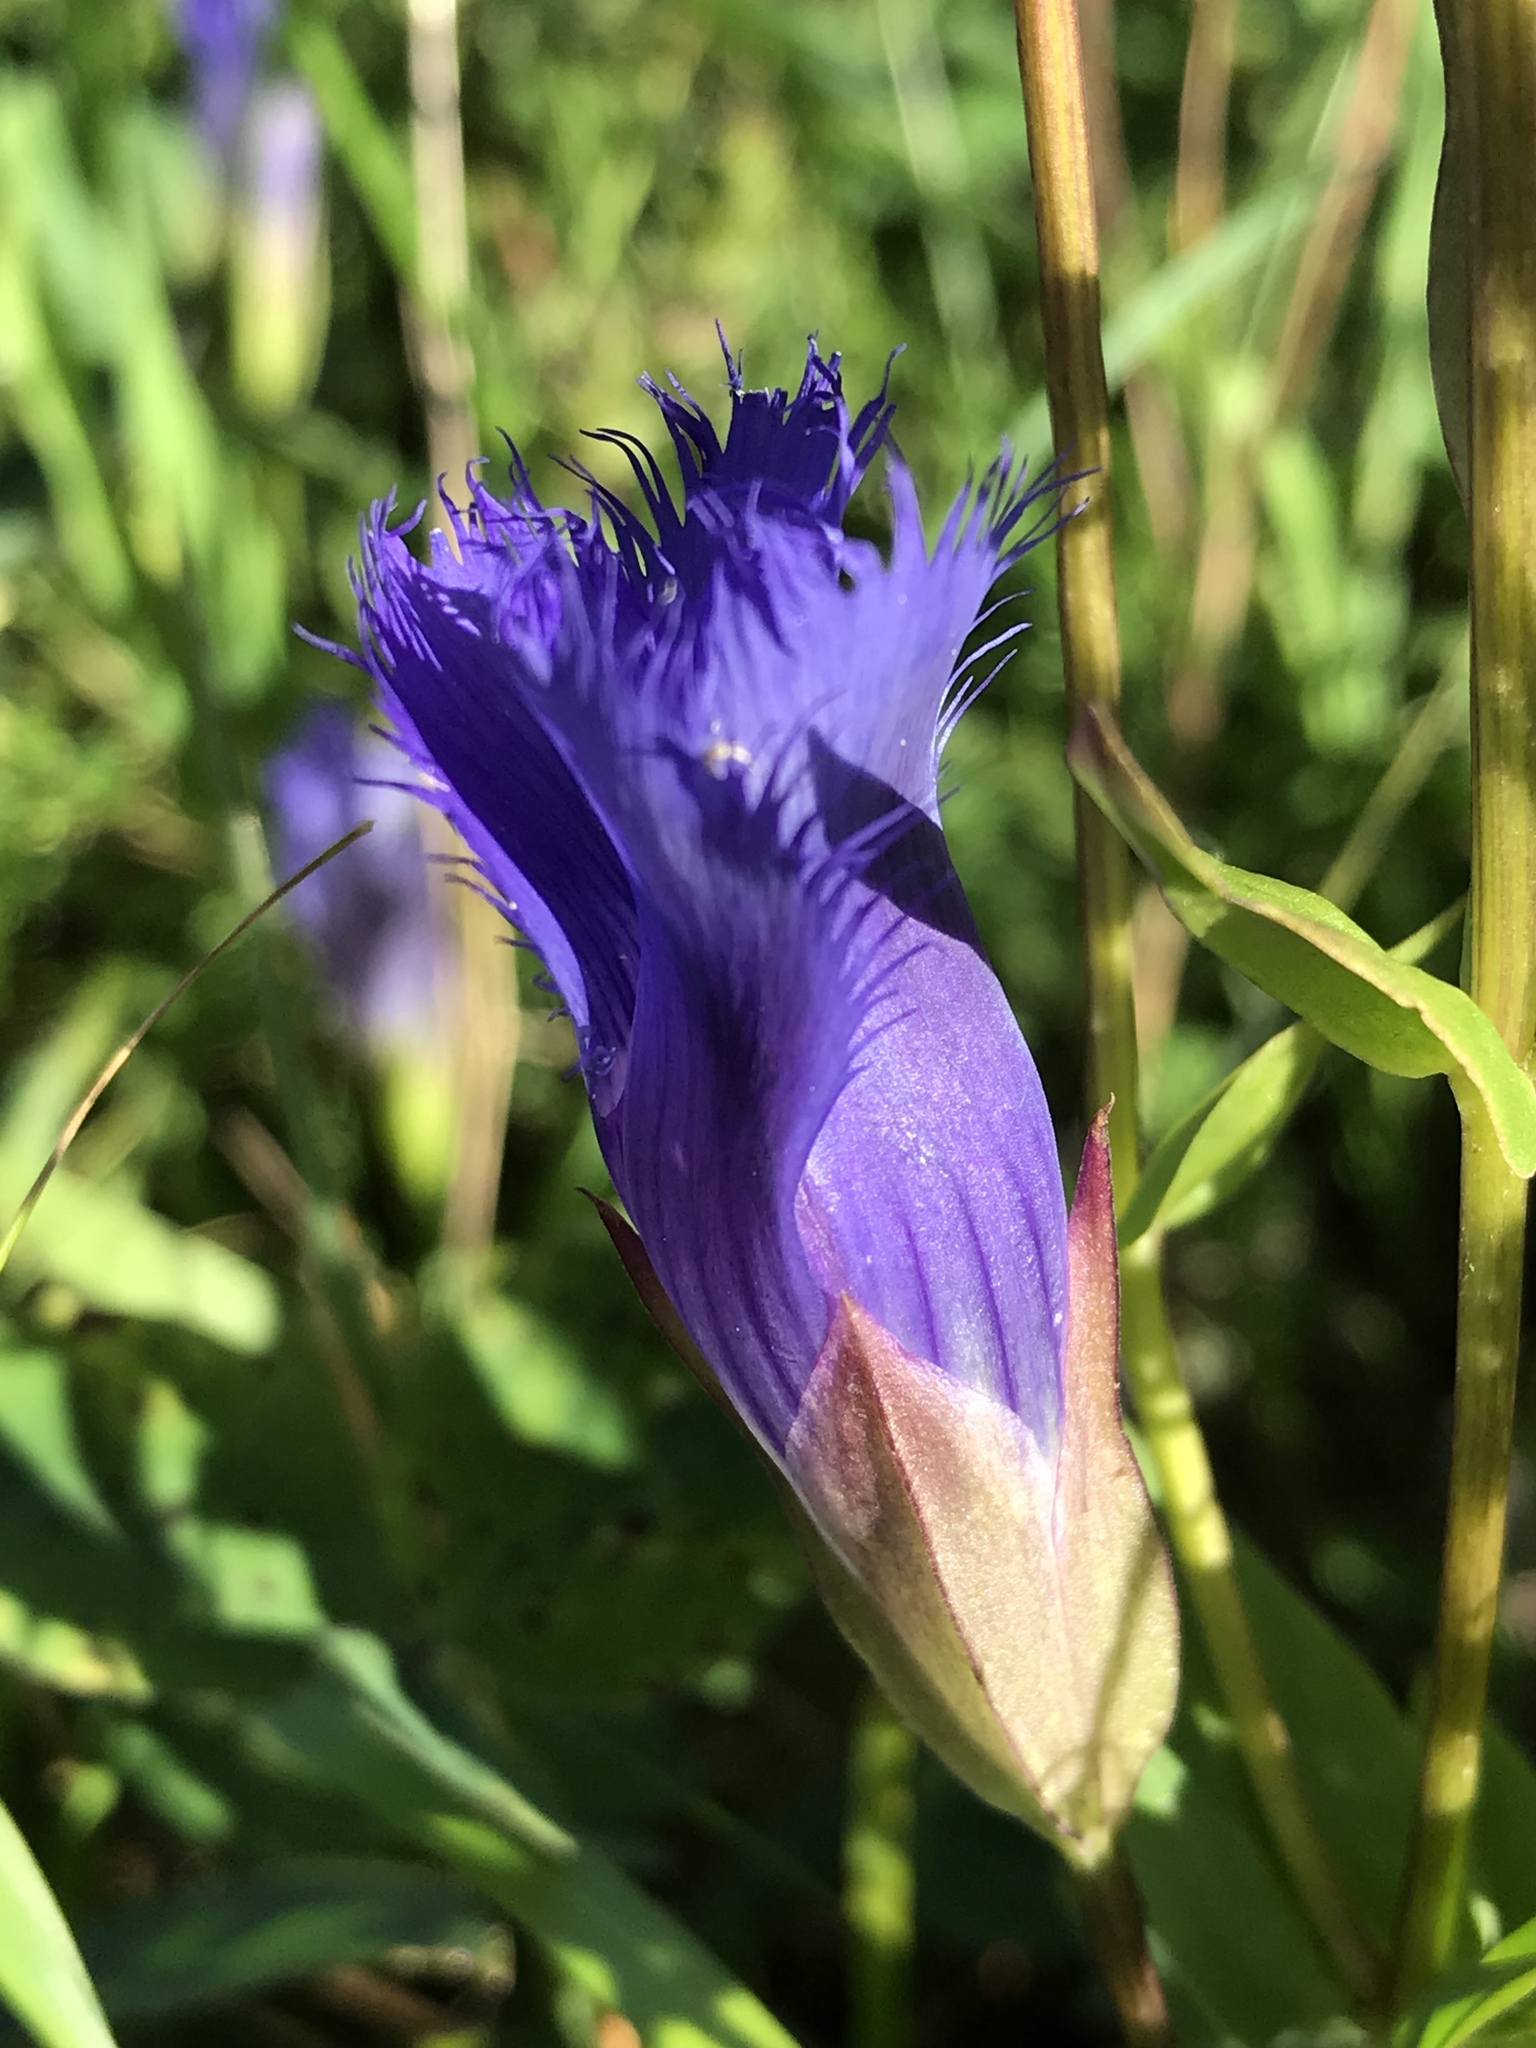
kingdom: Plantae
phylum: Tracheophyta
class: Magnoliopsida
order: Gentianales
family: Gentianaceae
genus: Gentianopsis
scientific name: Gentianopsis crinita
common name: Fringed-gentian
